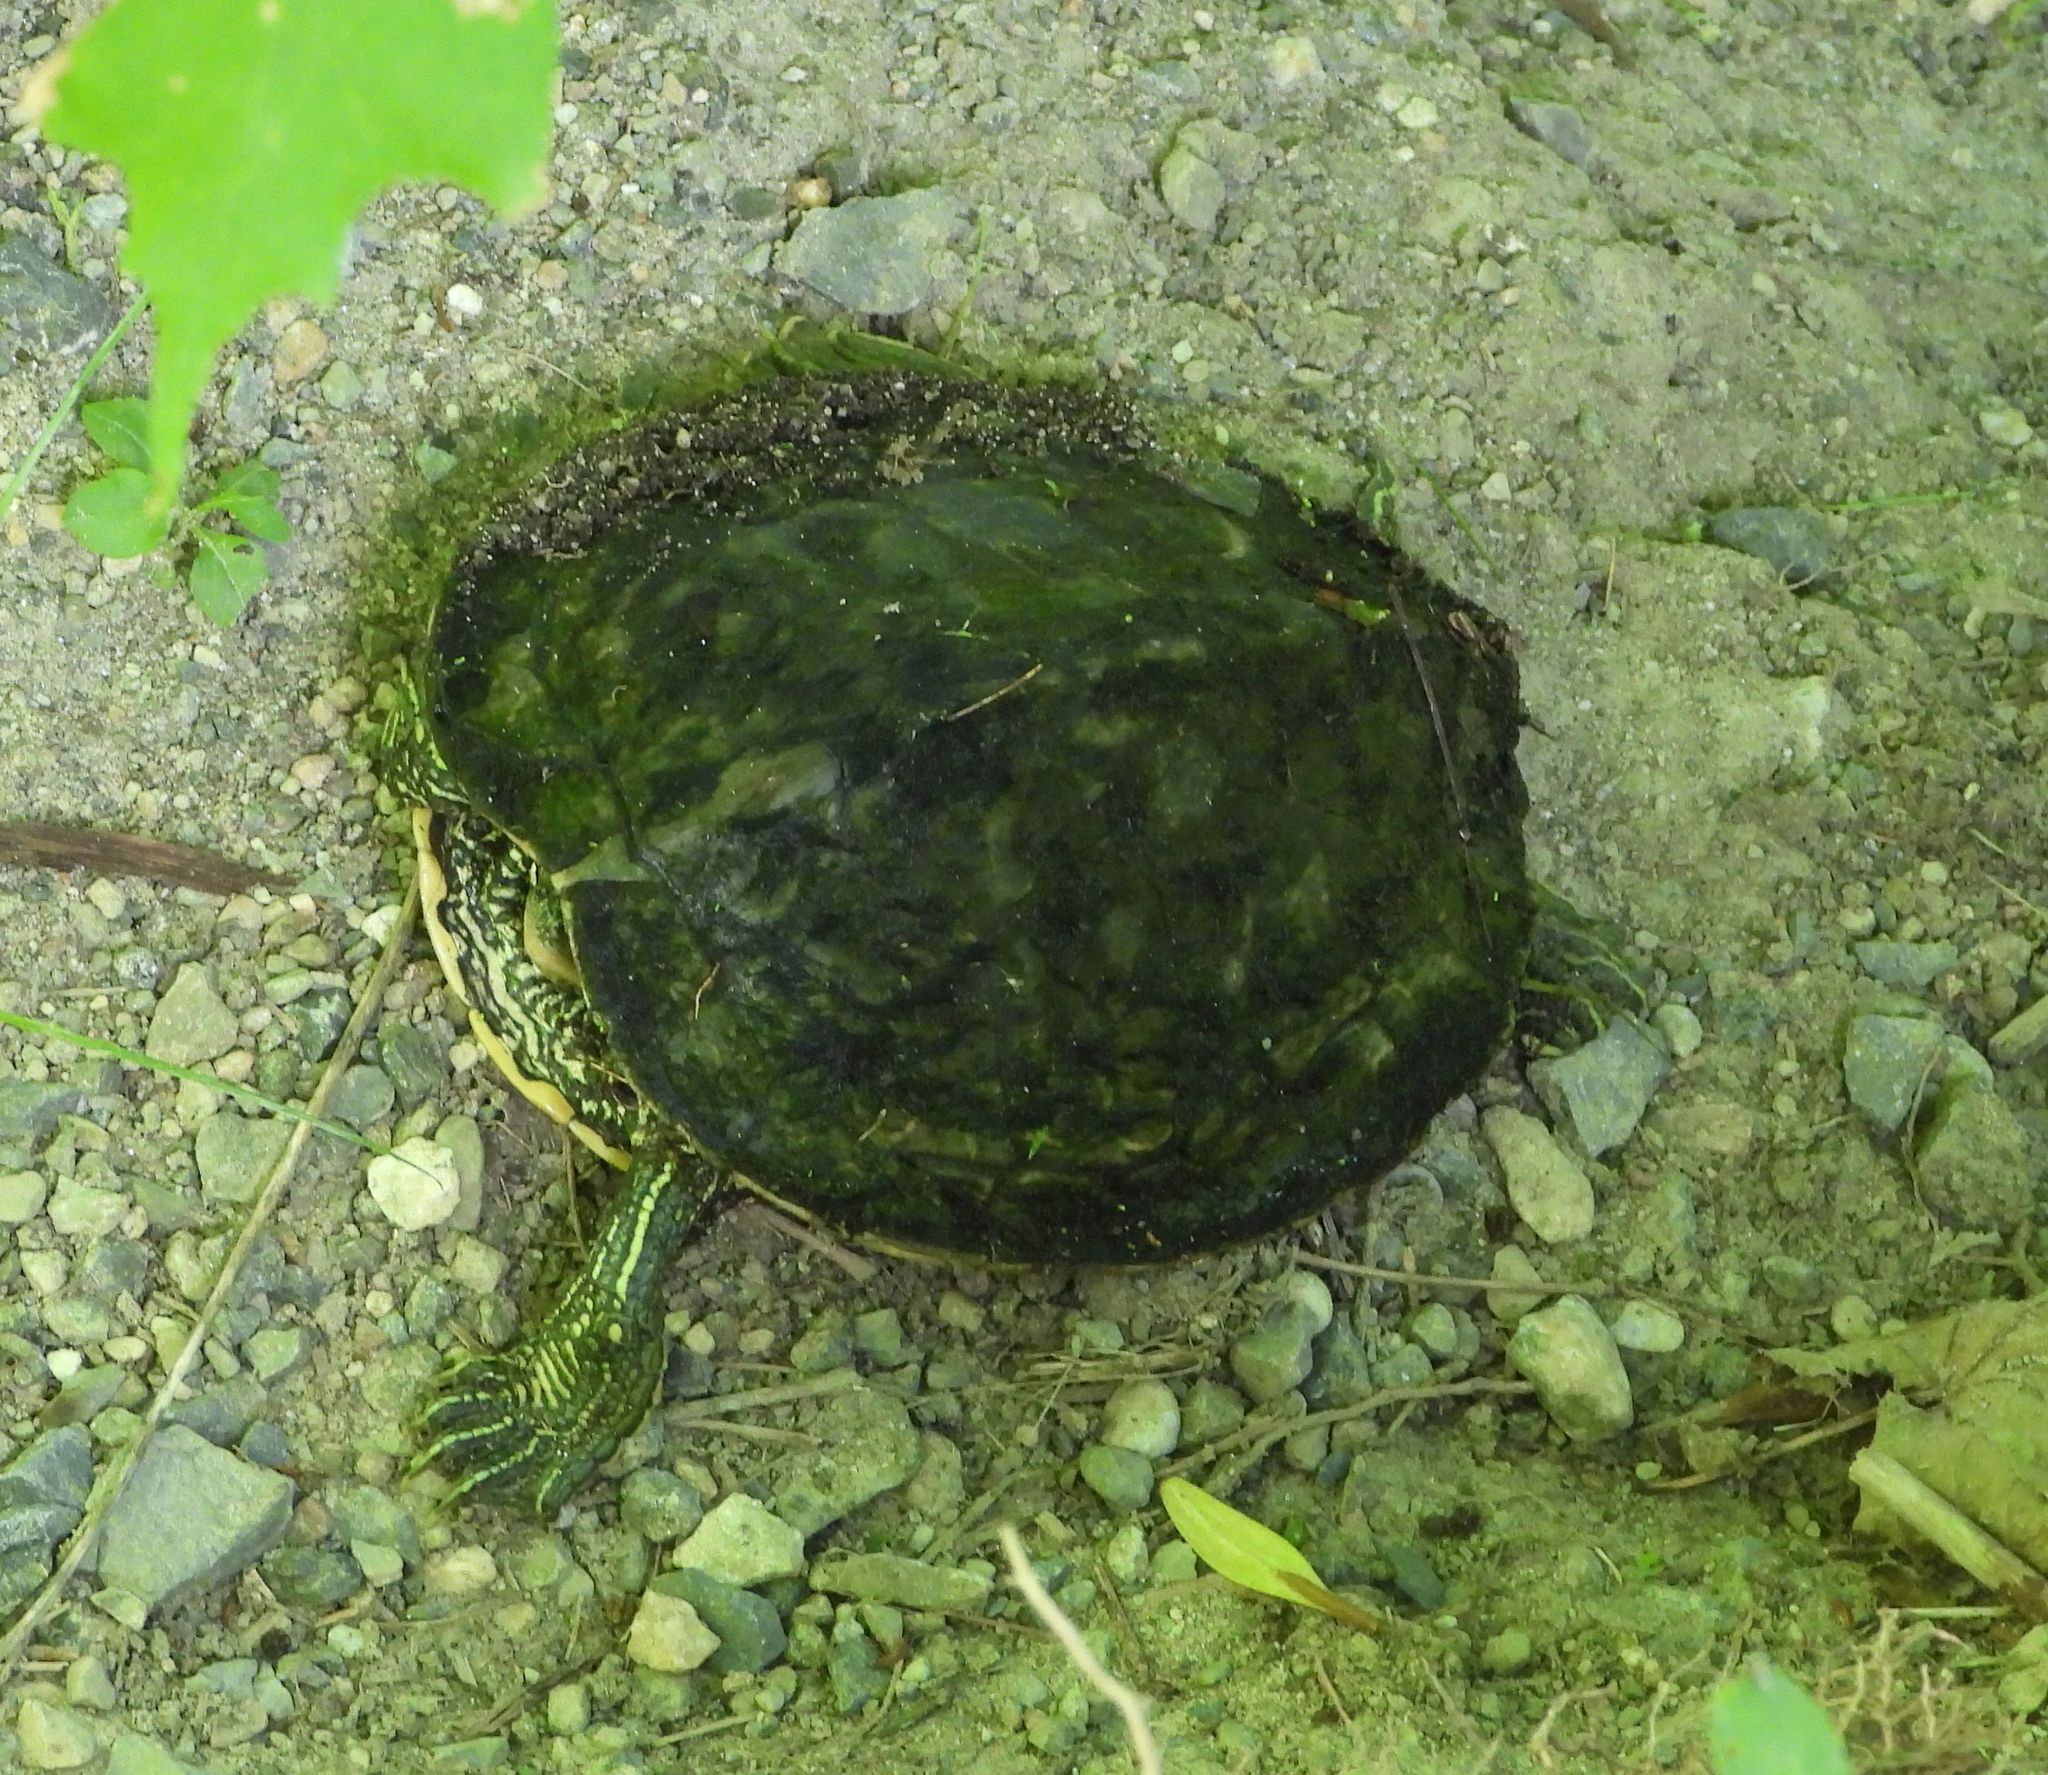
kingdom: Animalia
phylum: Chordata
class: Testudines
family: Emydidae
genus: Graptemys
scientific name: Graptemys geographica
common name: Common map turtle
